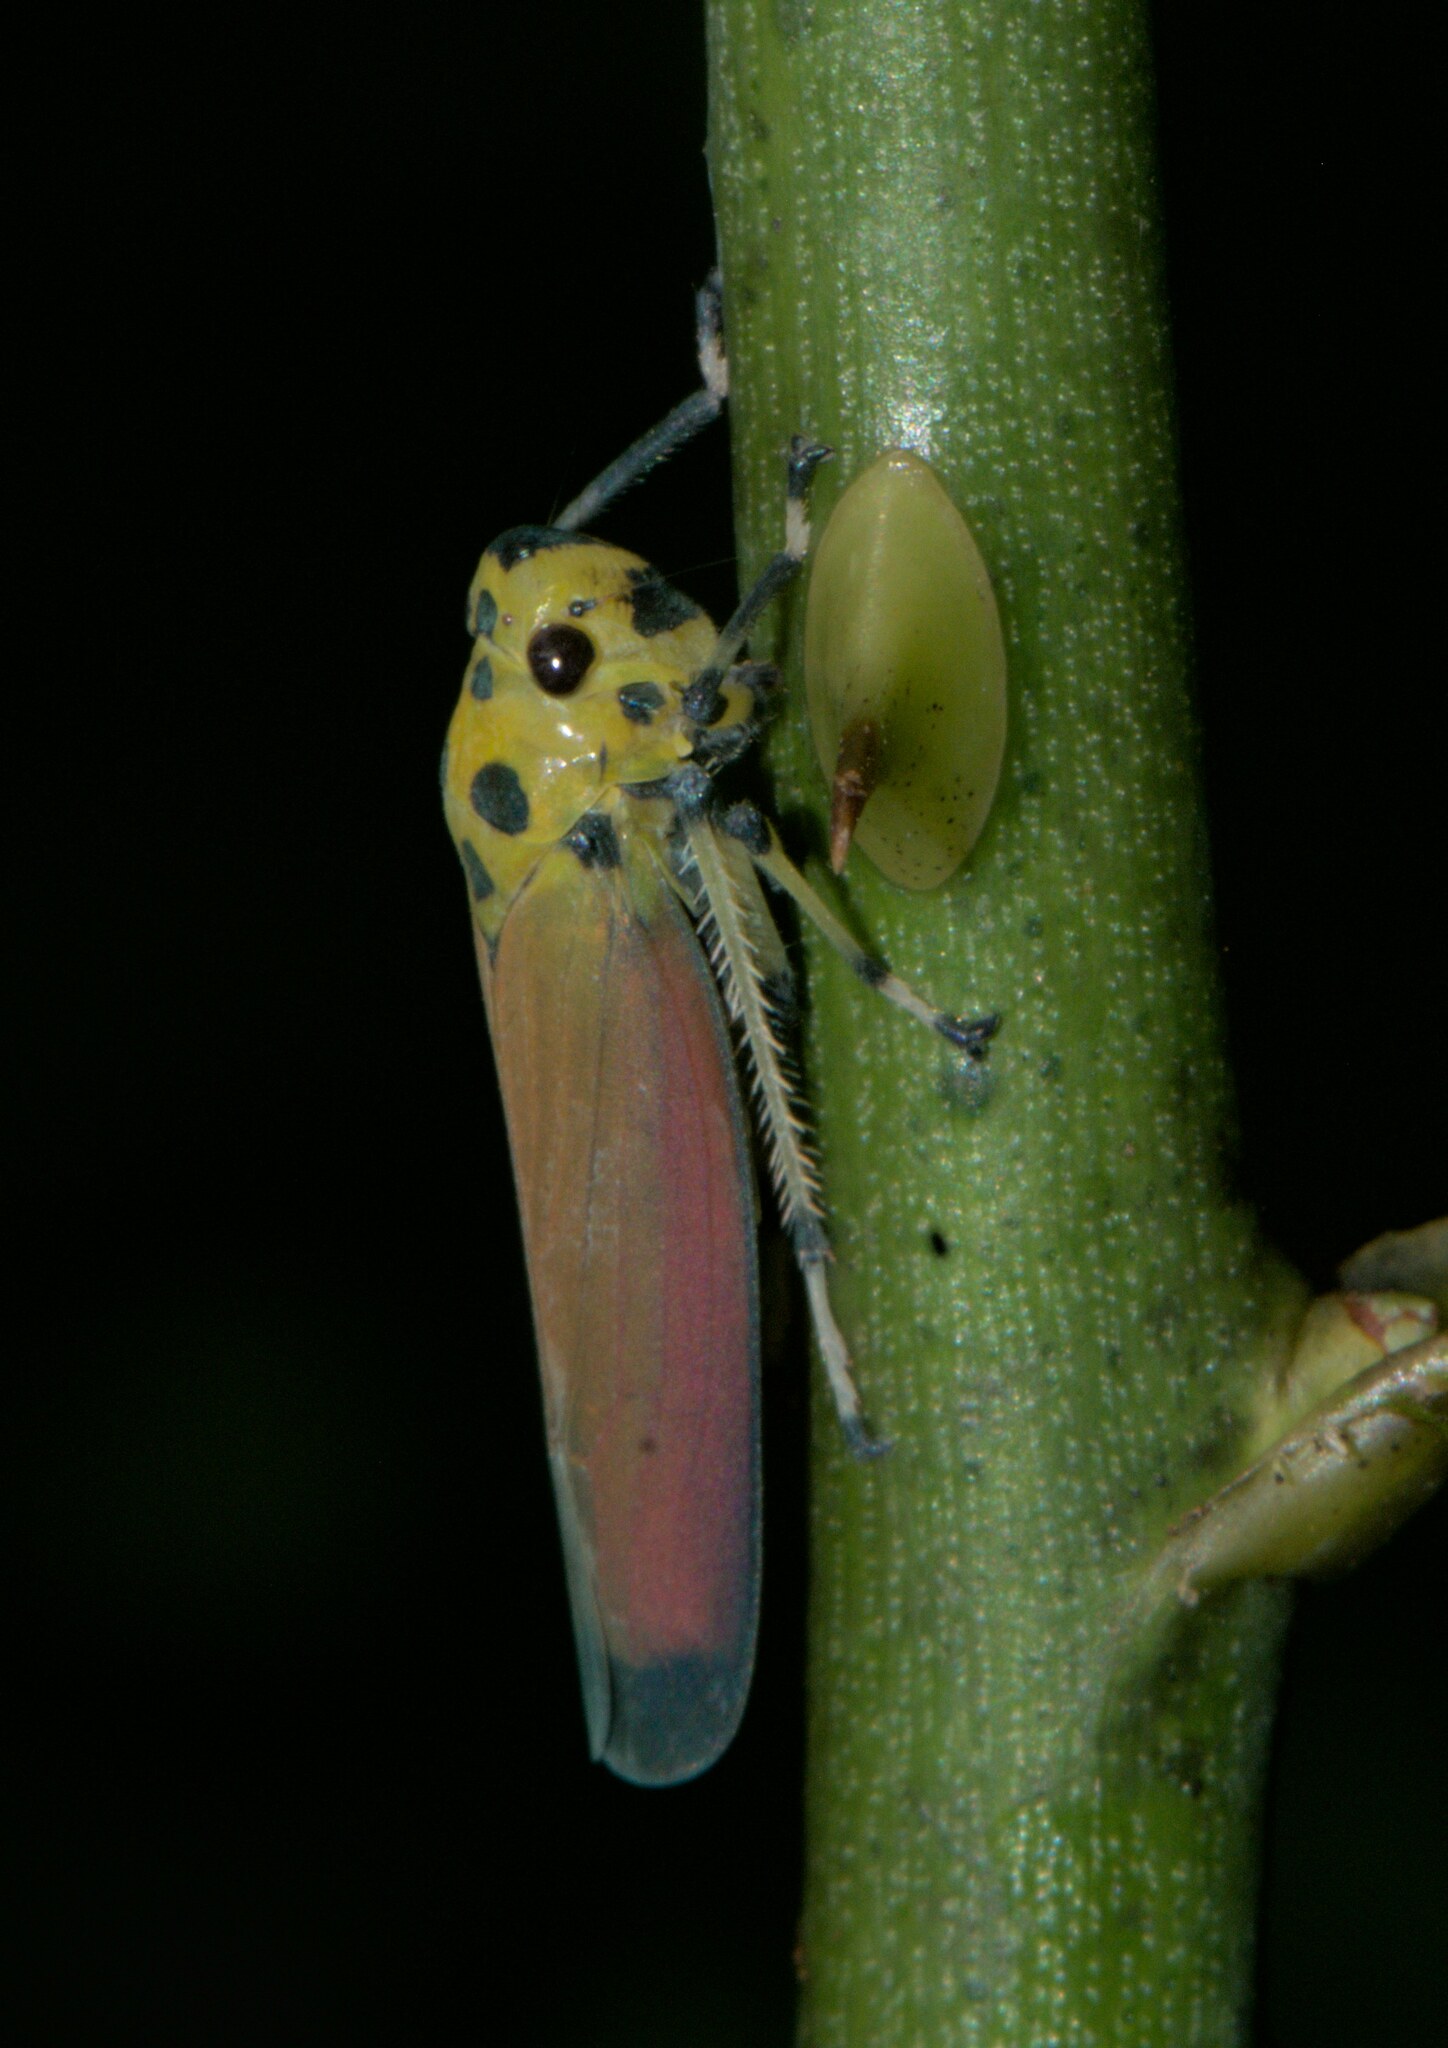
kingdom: Animalia
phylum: Arthropoda
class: Insecta
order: Hemiptera
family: Cicadellidae
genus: Bothrogonia
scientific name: Bothrogonia ferruginea
